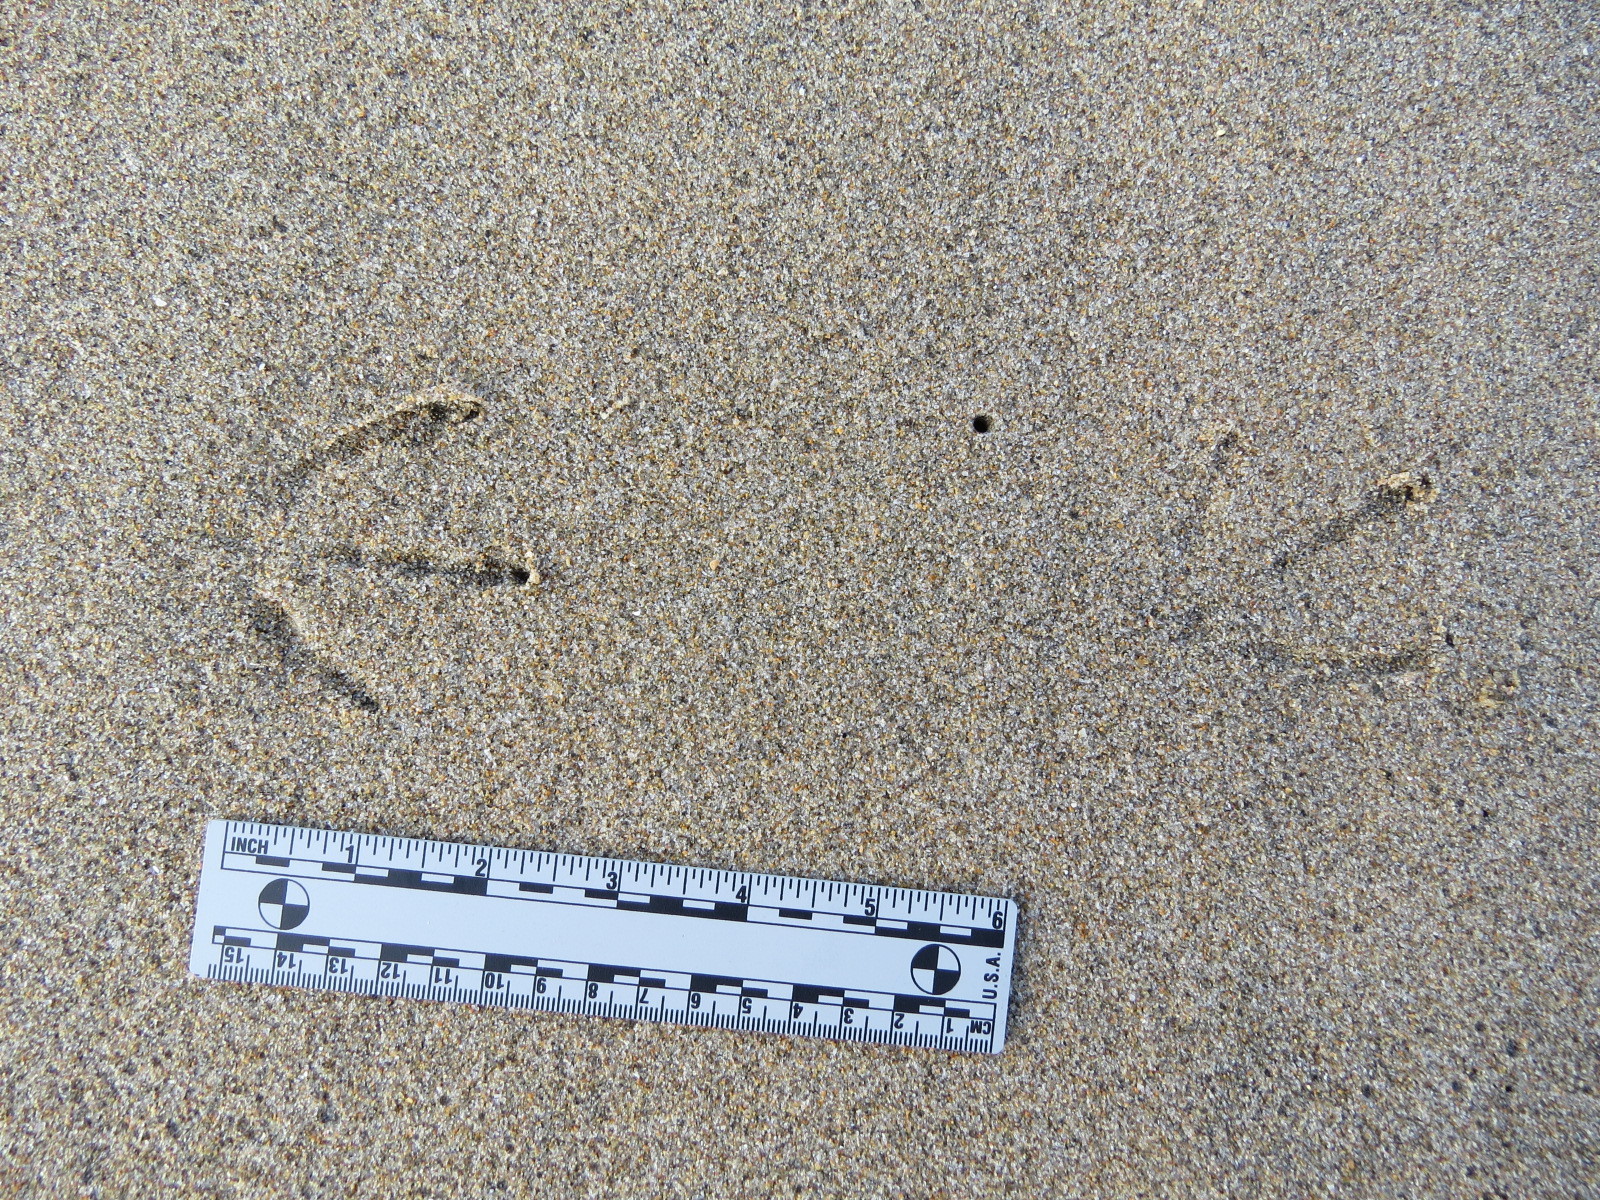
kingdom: Animalia
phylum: Chordata
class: Aves
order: Charadriiformes
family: Laridae
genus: Larus
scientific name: Larus californicus
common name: California gull
